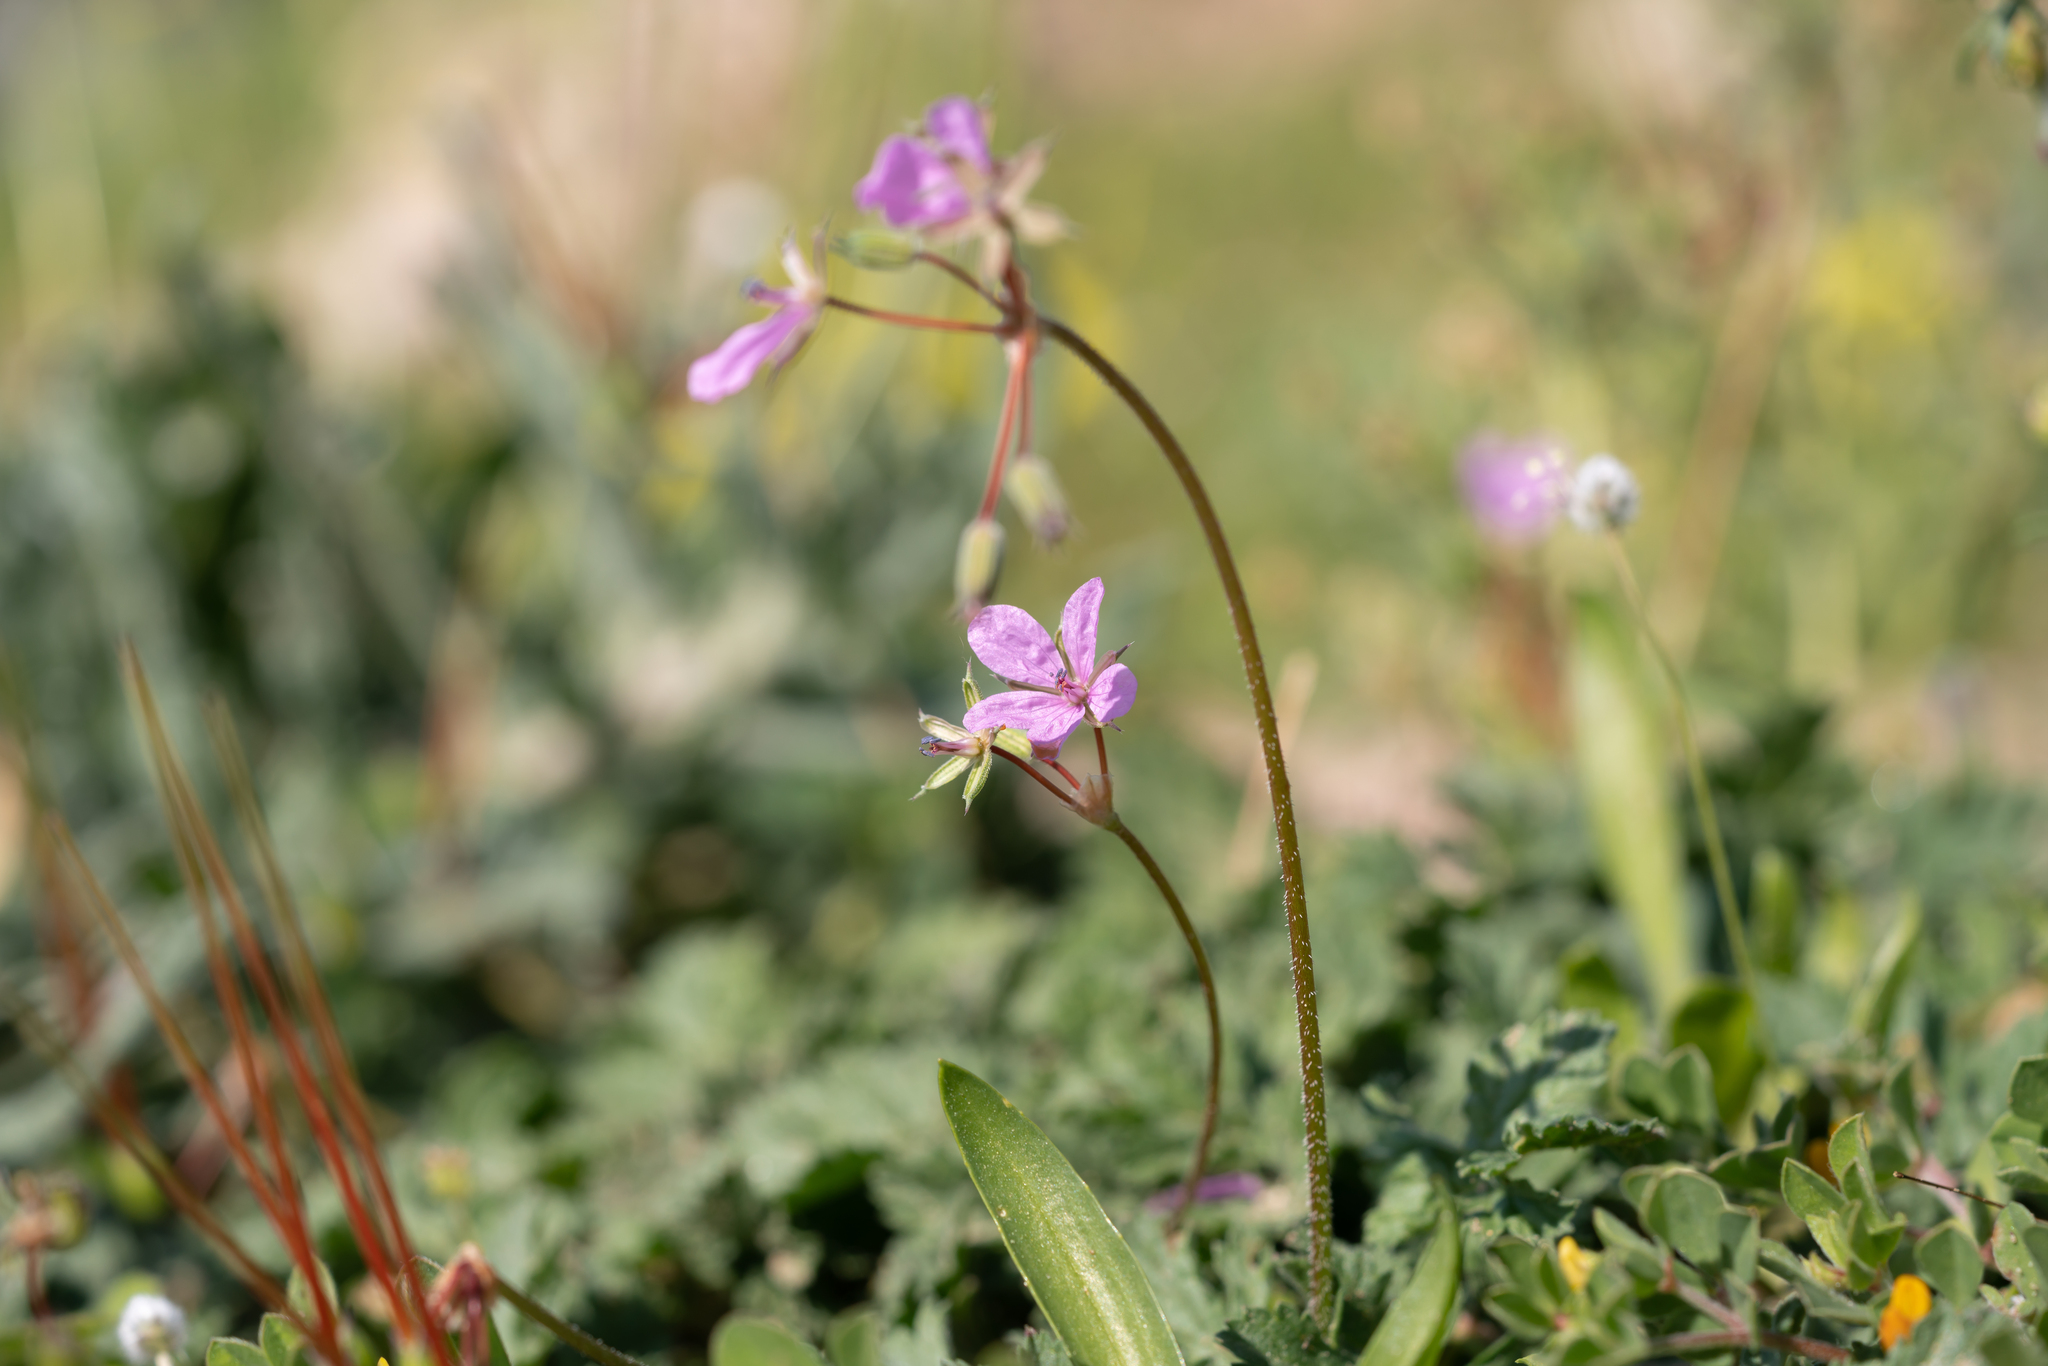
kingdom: Plantae
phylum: Tracheophyta
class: Magnoliopsida
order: Geraniales
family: Geraniaceae
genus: Erodium
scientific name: Erodium laciniatum
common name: Cutleaf stork's bill
